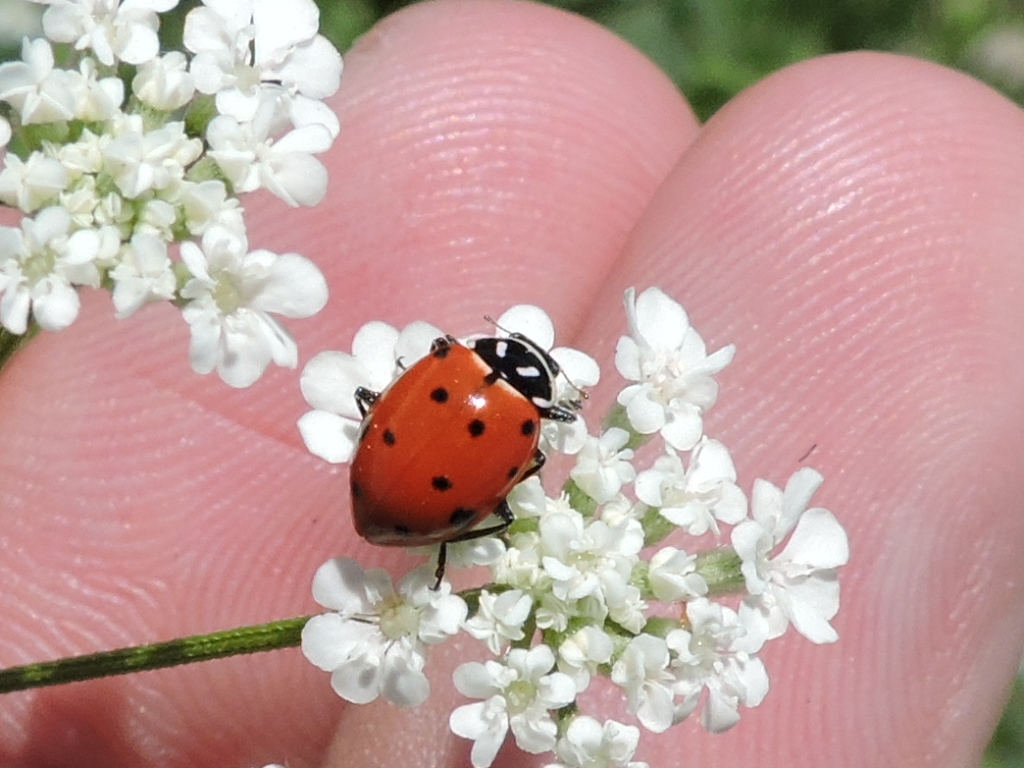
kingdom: Animalia
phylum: Arthropoda
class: Insecta
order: Coleoptera
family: Coccinellidae
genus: Hippodamia
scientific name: Hippodamia convergens
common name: Convergent lady beetle
